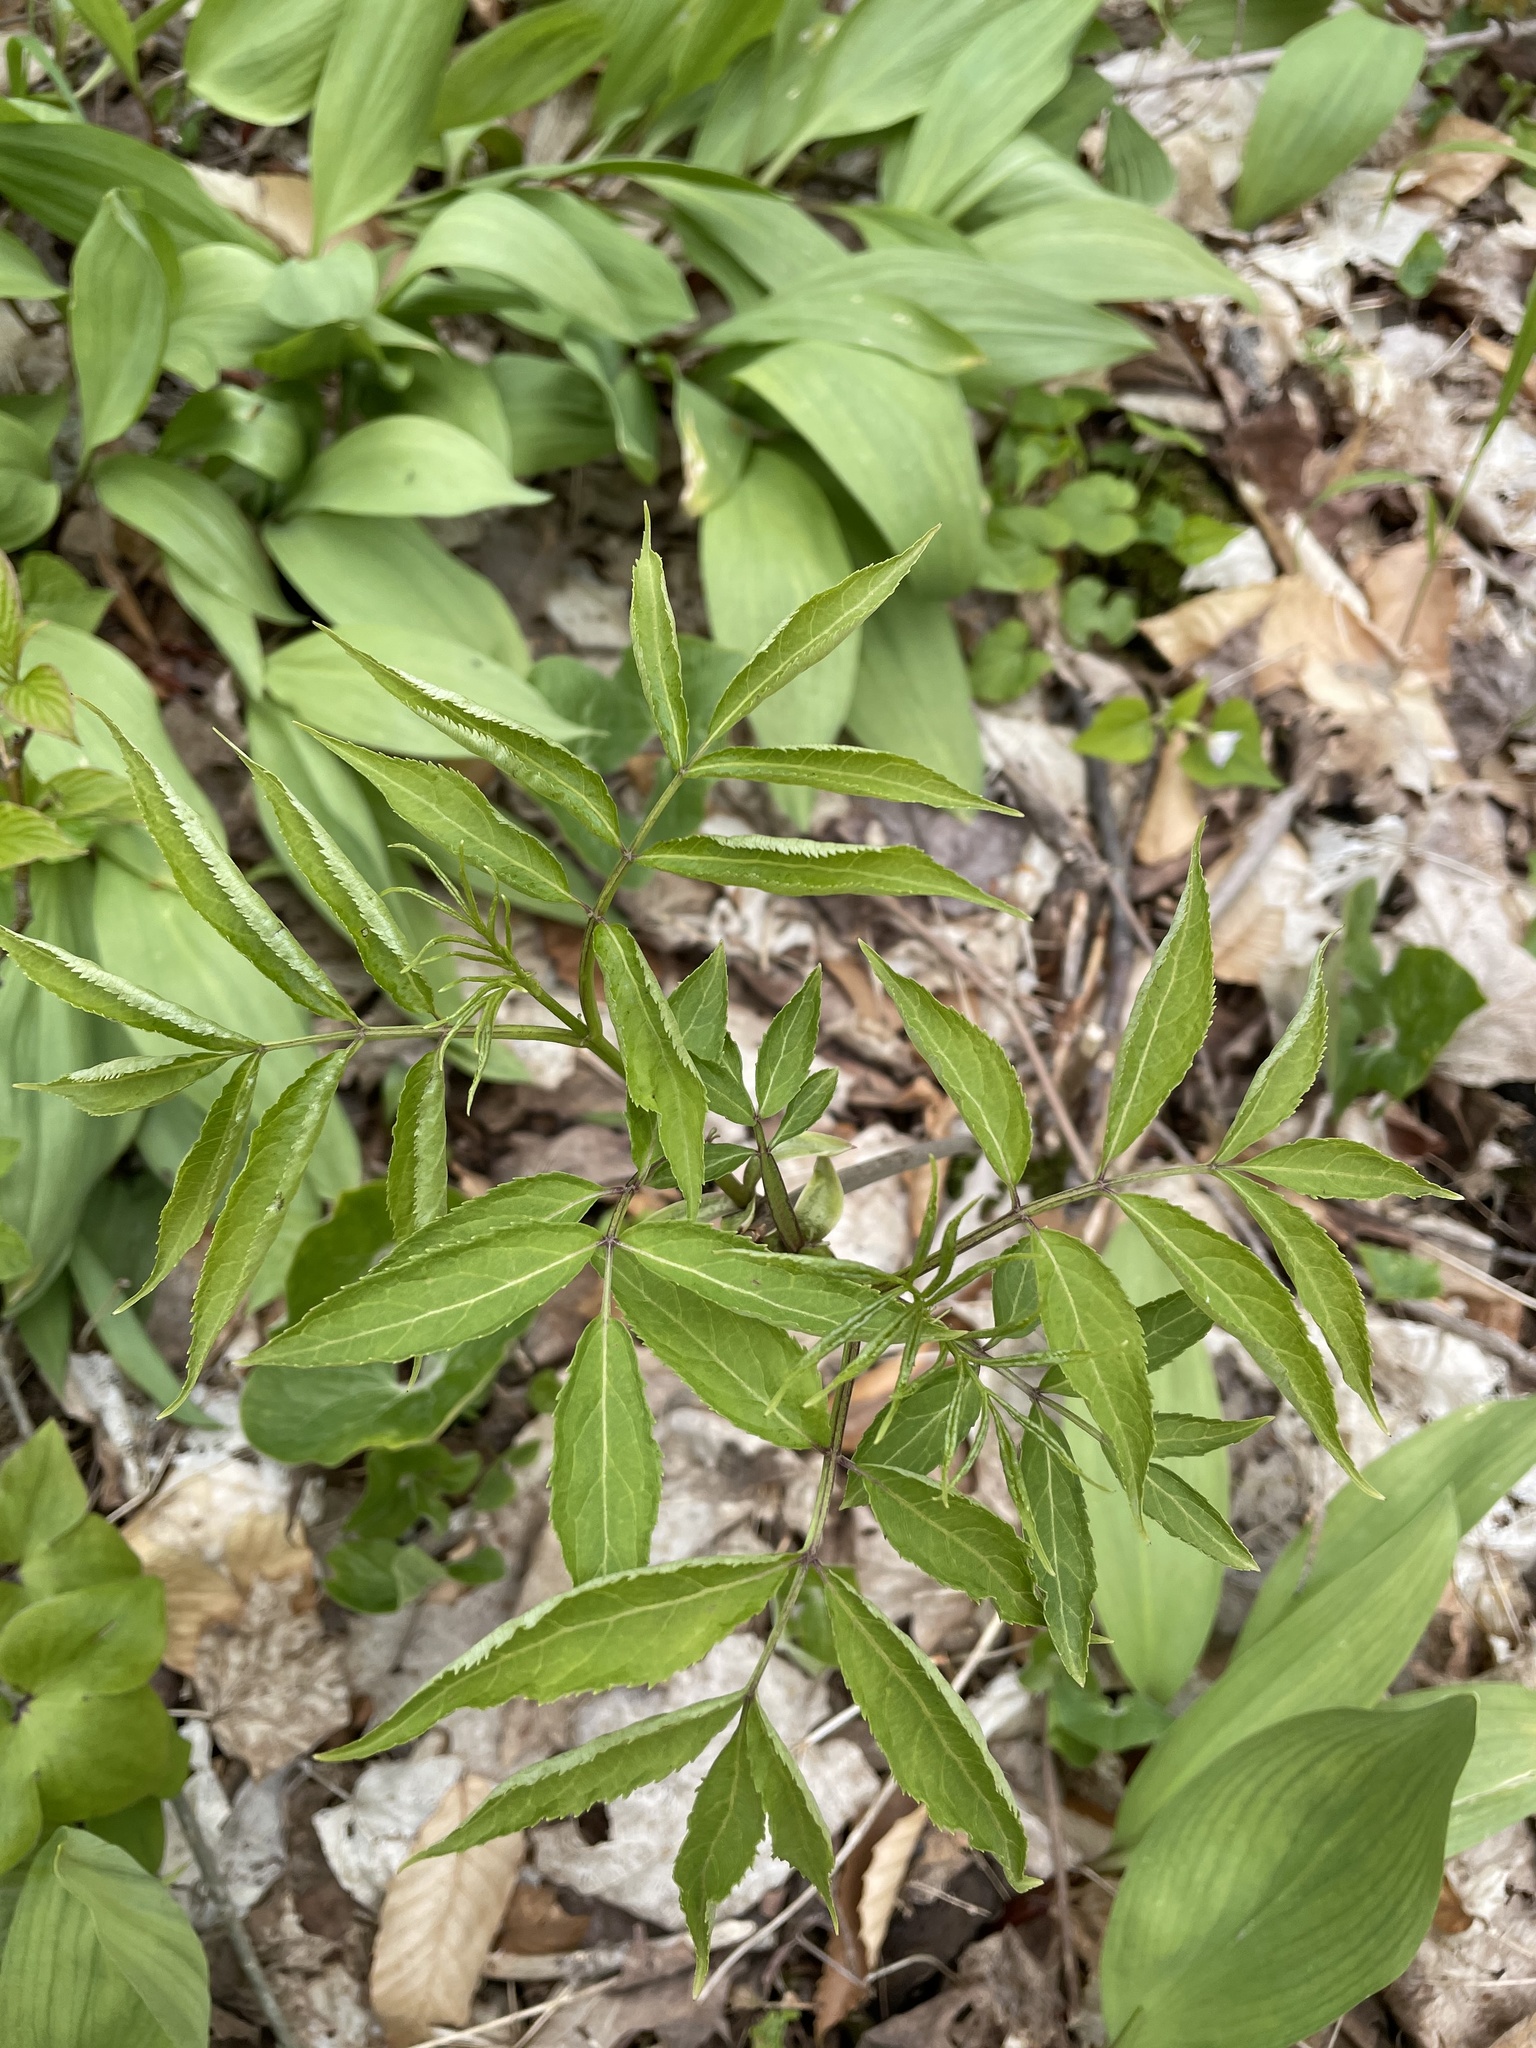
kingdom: Plantae
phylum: Tracheophyta
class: Magnoliopsida
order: Dipsacales
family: Viburnaceae
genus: Sambucus
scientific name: Sambucus
